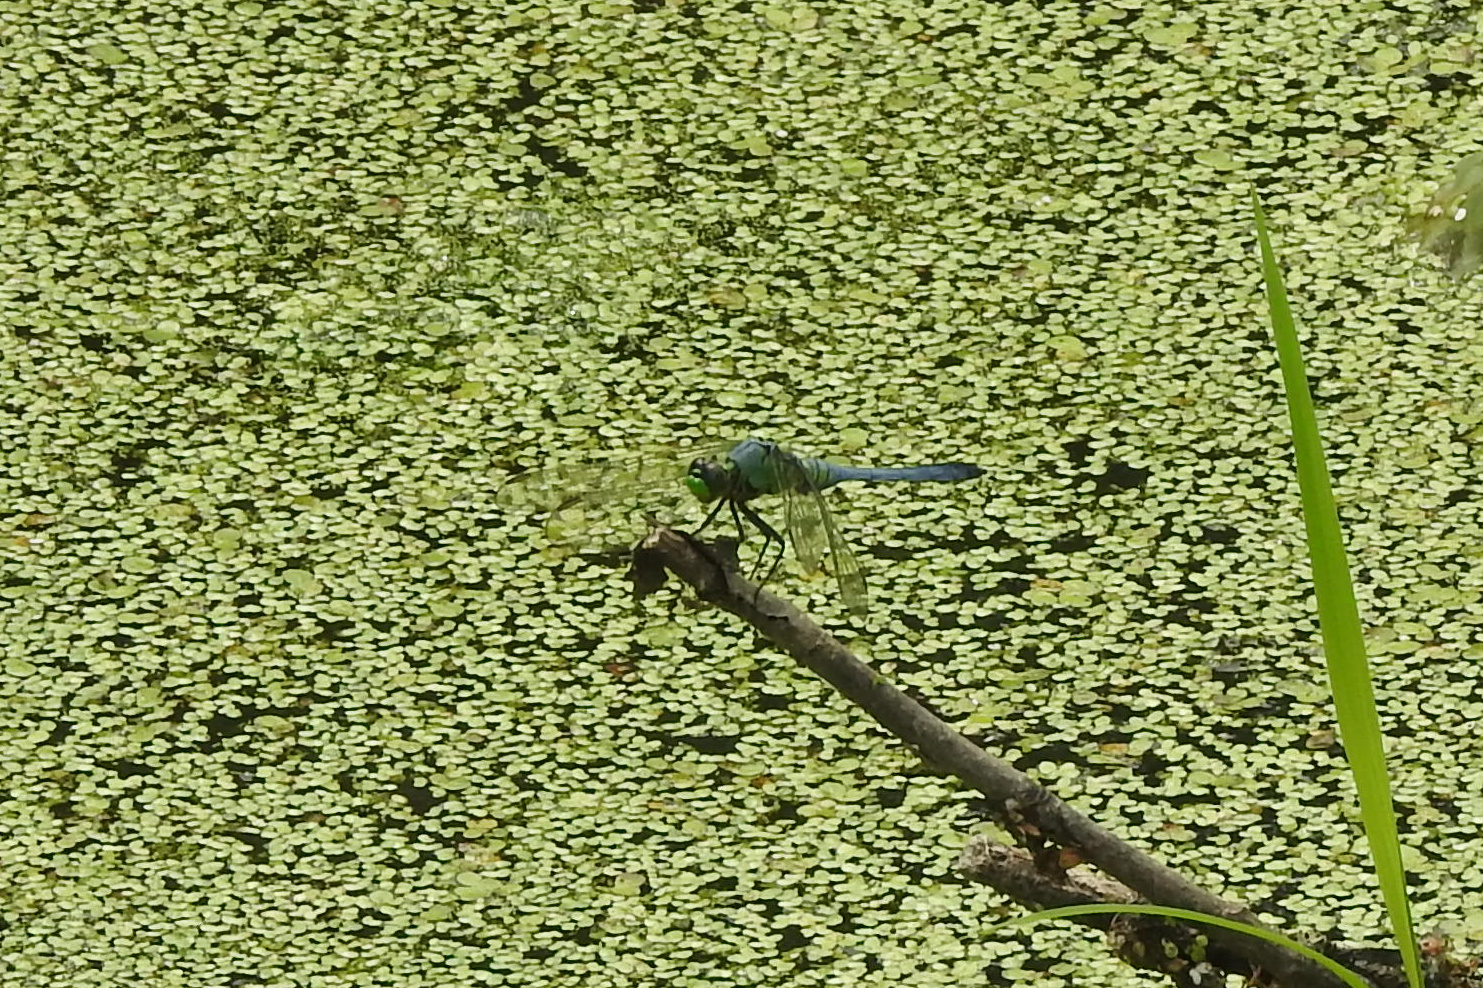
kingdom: Animalia
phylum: Arthropoda
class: Insecta
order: Odonata
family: Libellulidae
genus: Erythemis
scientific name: Erythemis simplicicollis
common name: Eastern pondhawk
